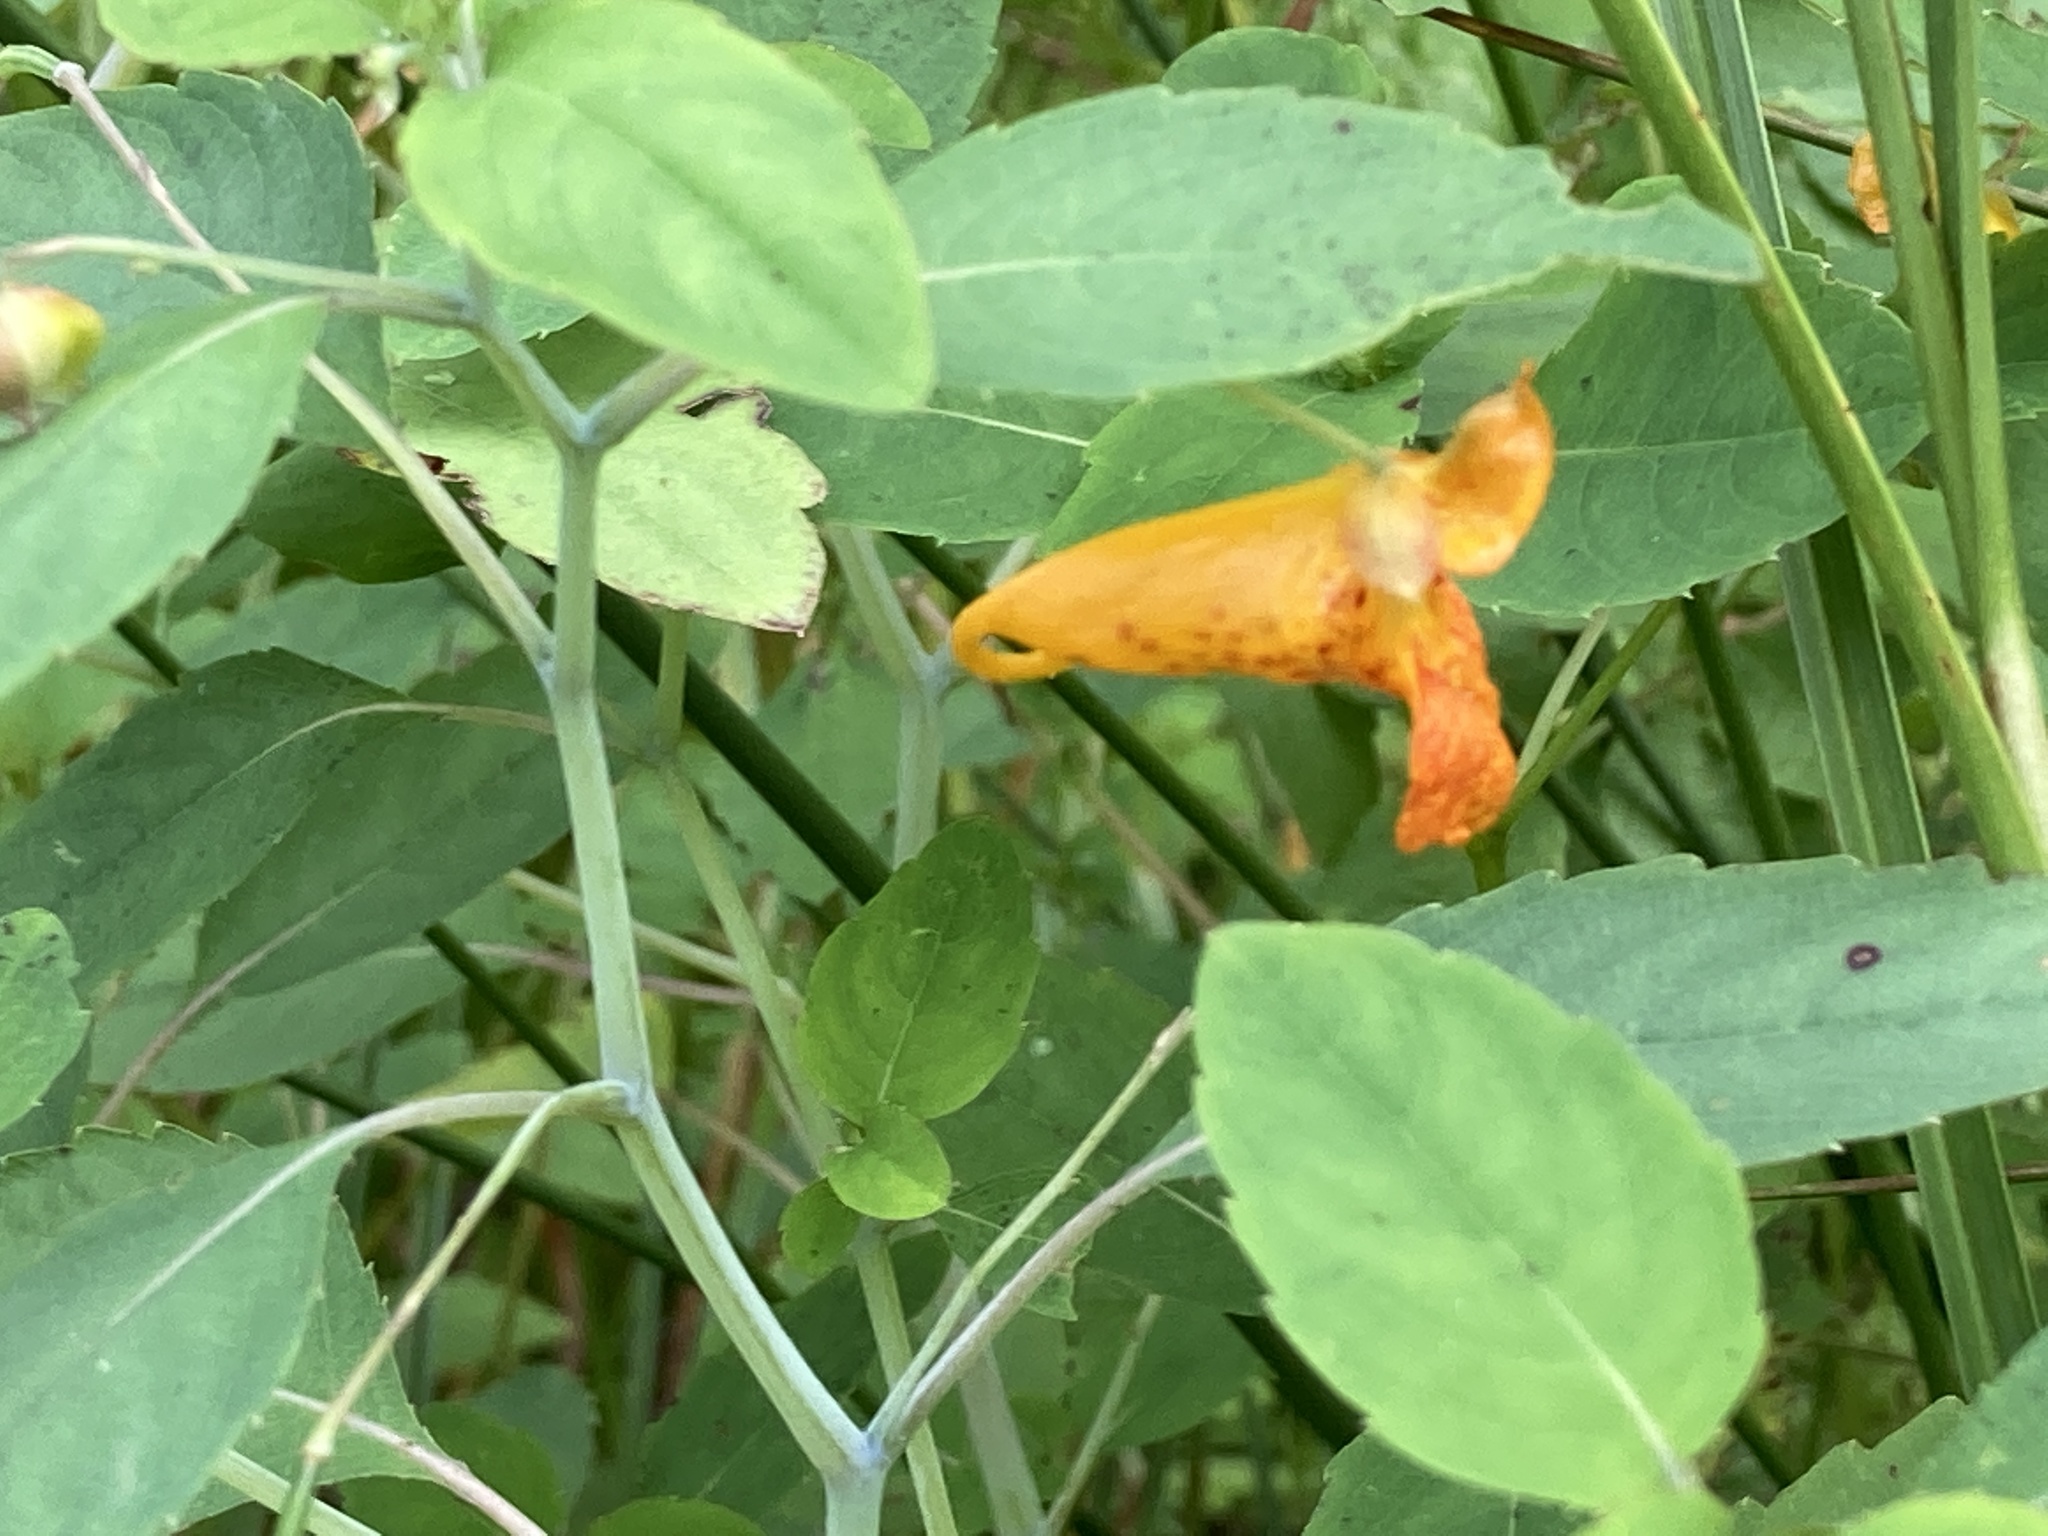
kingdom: Plantae
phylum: Tracheophyta
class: Magnoliopsida
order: Ericales
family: Balsaminaceae
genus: Impatiens
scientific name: Impatiens capensis
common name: Orange balsam
